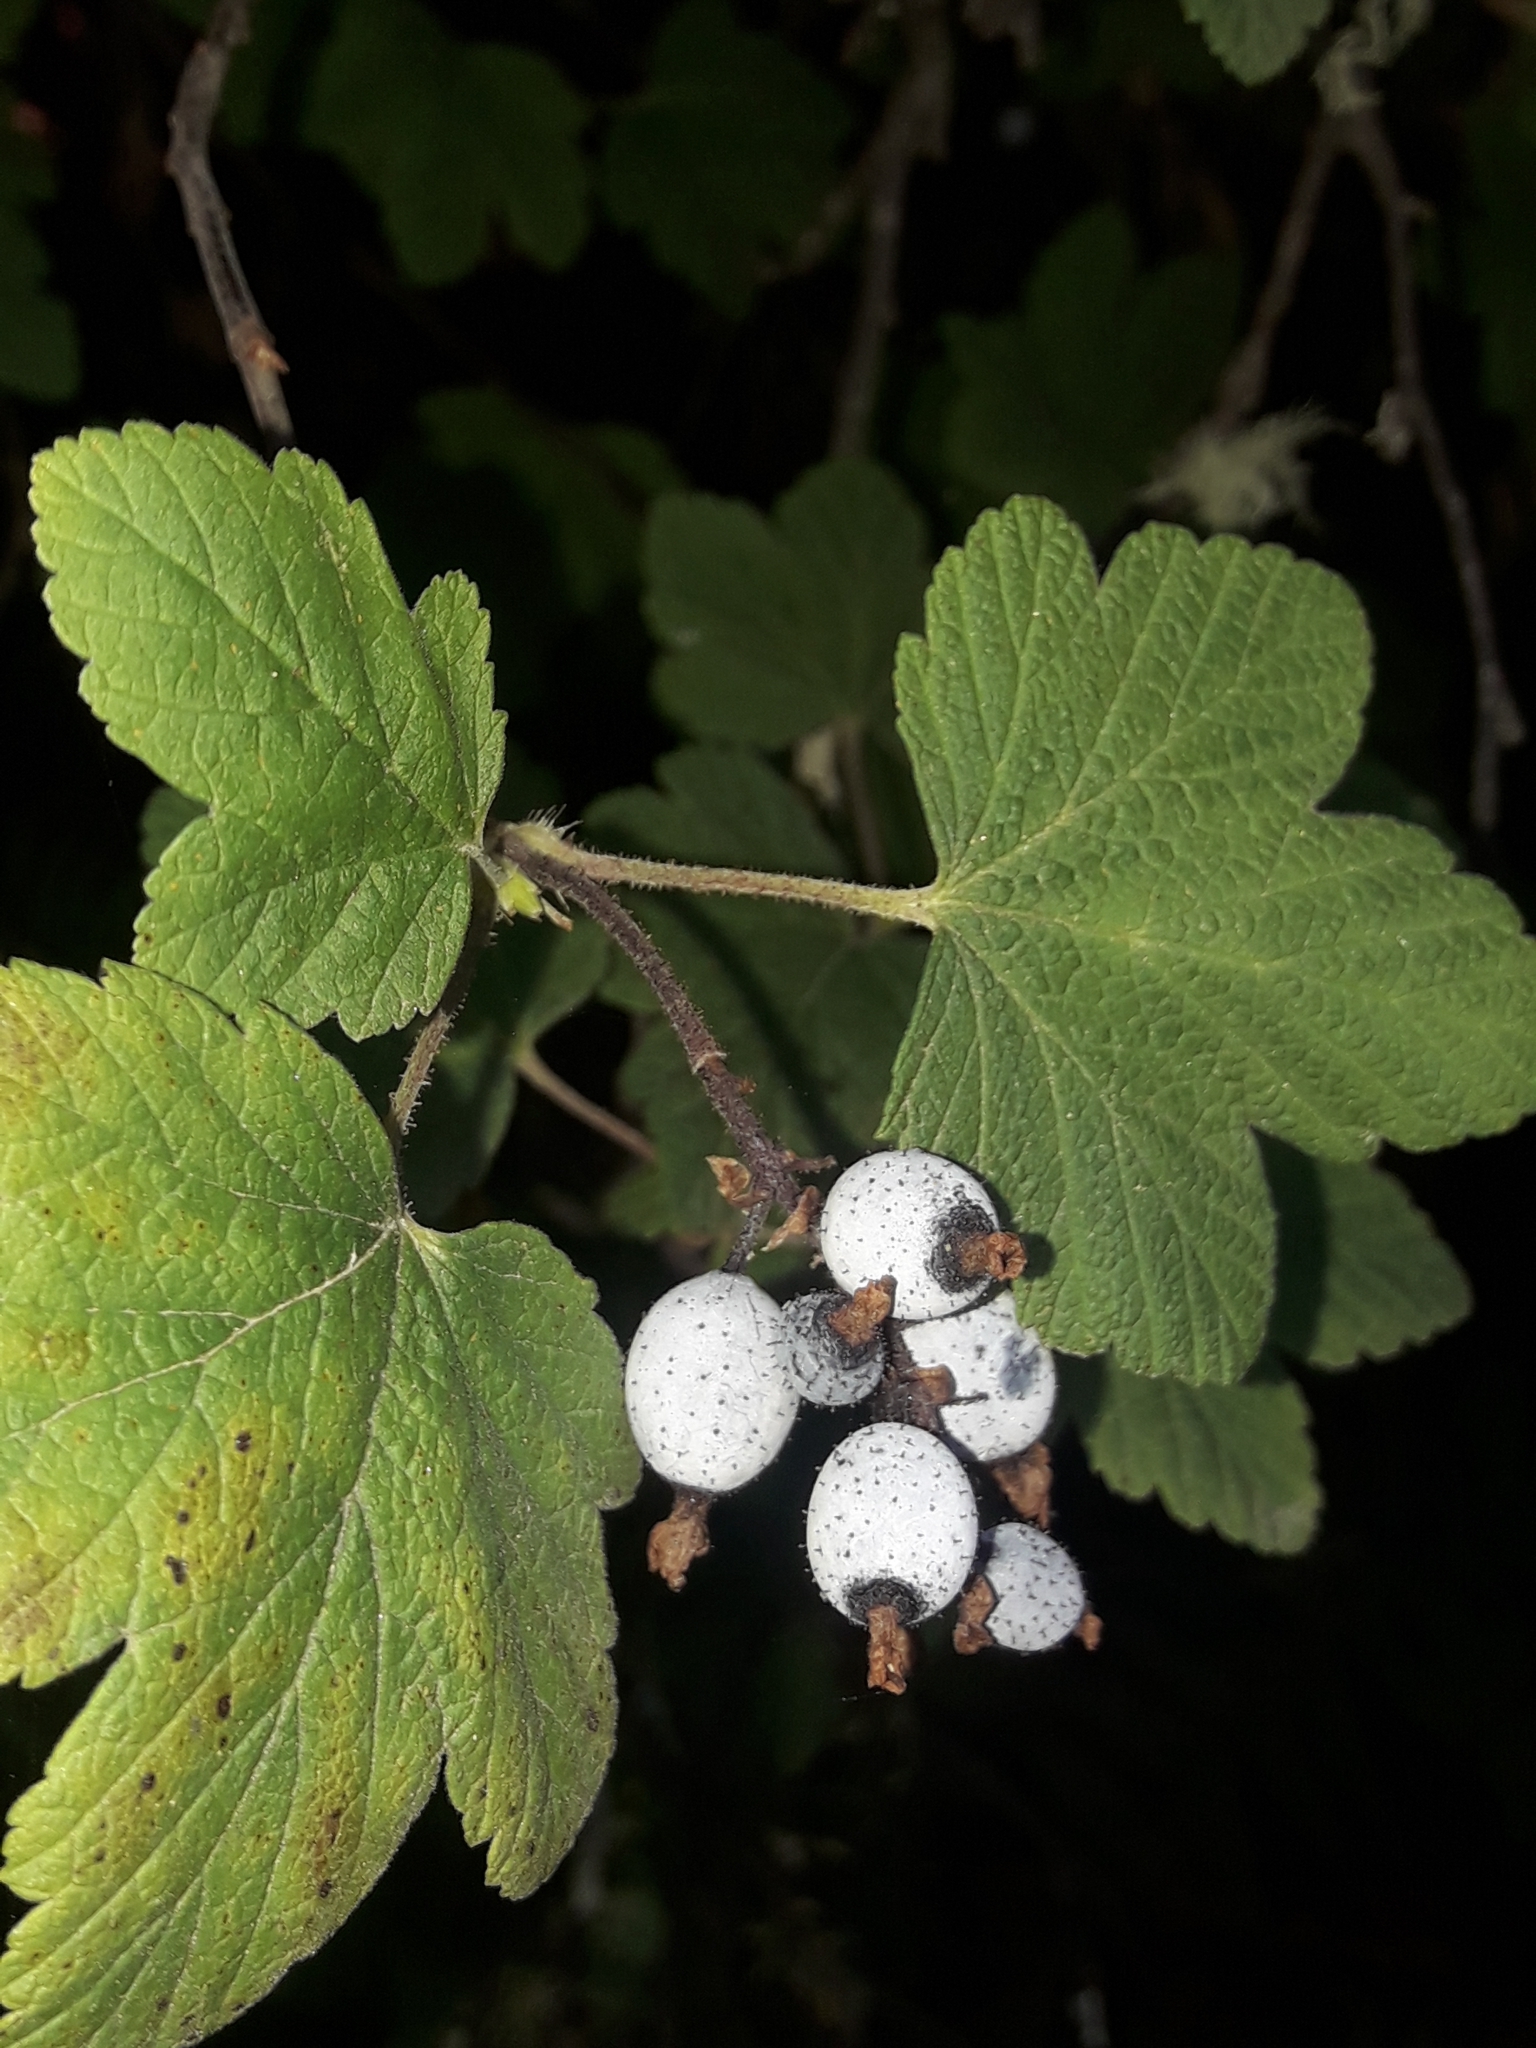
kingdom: Plantae
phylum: Tracheophyta
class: Magnoliopsida
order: Saxifragales
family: Grossulariaceae
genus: Ribes
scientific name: Ribes sanguineum
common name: Flowering currant
